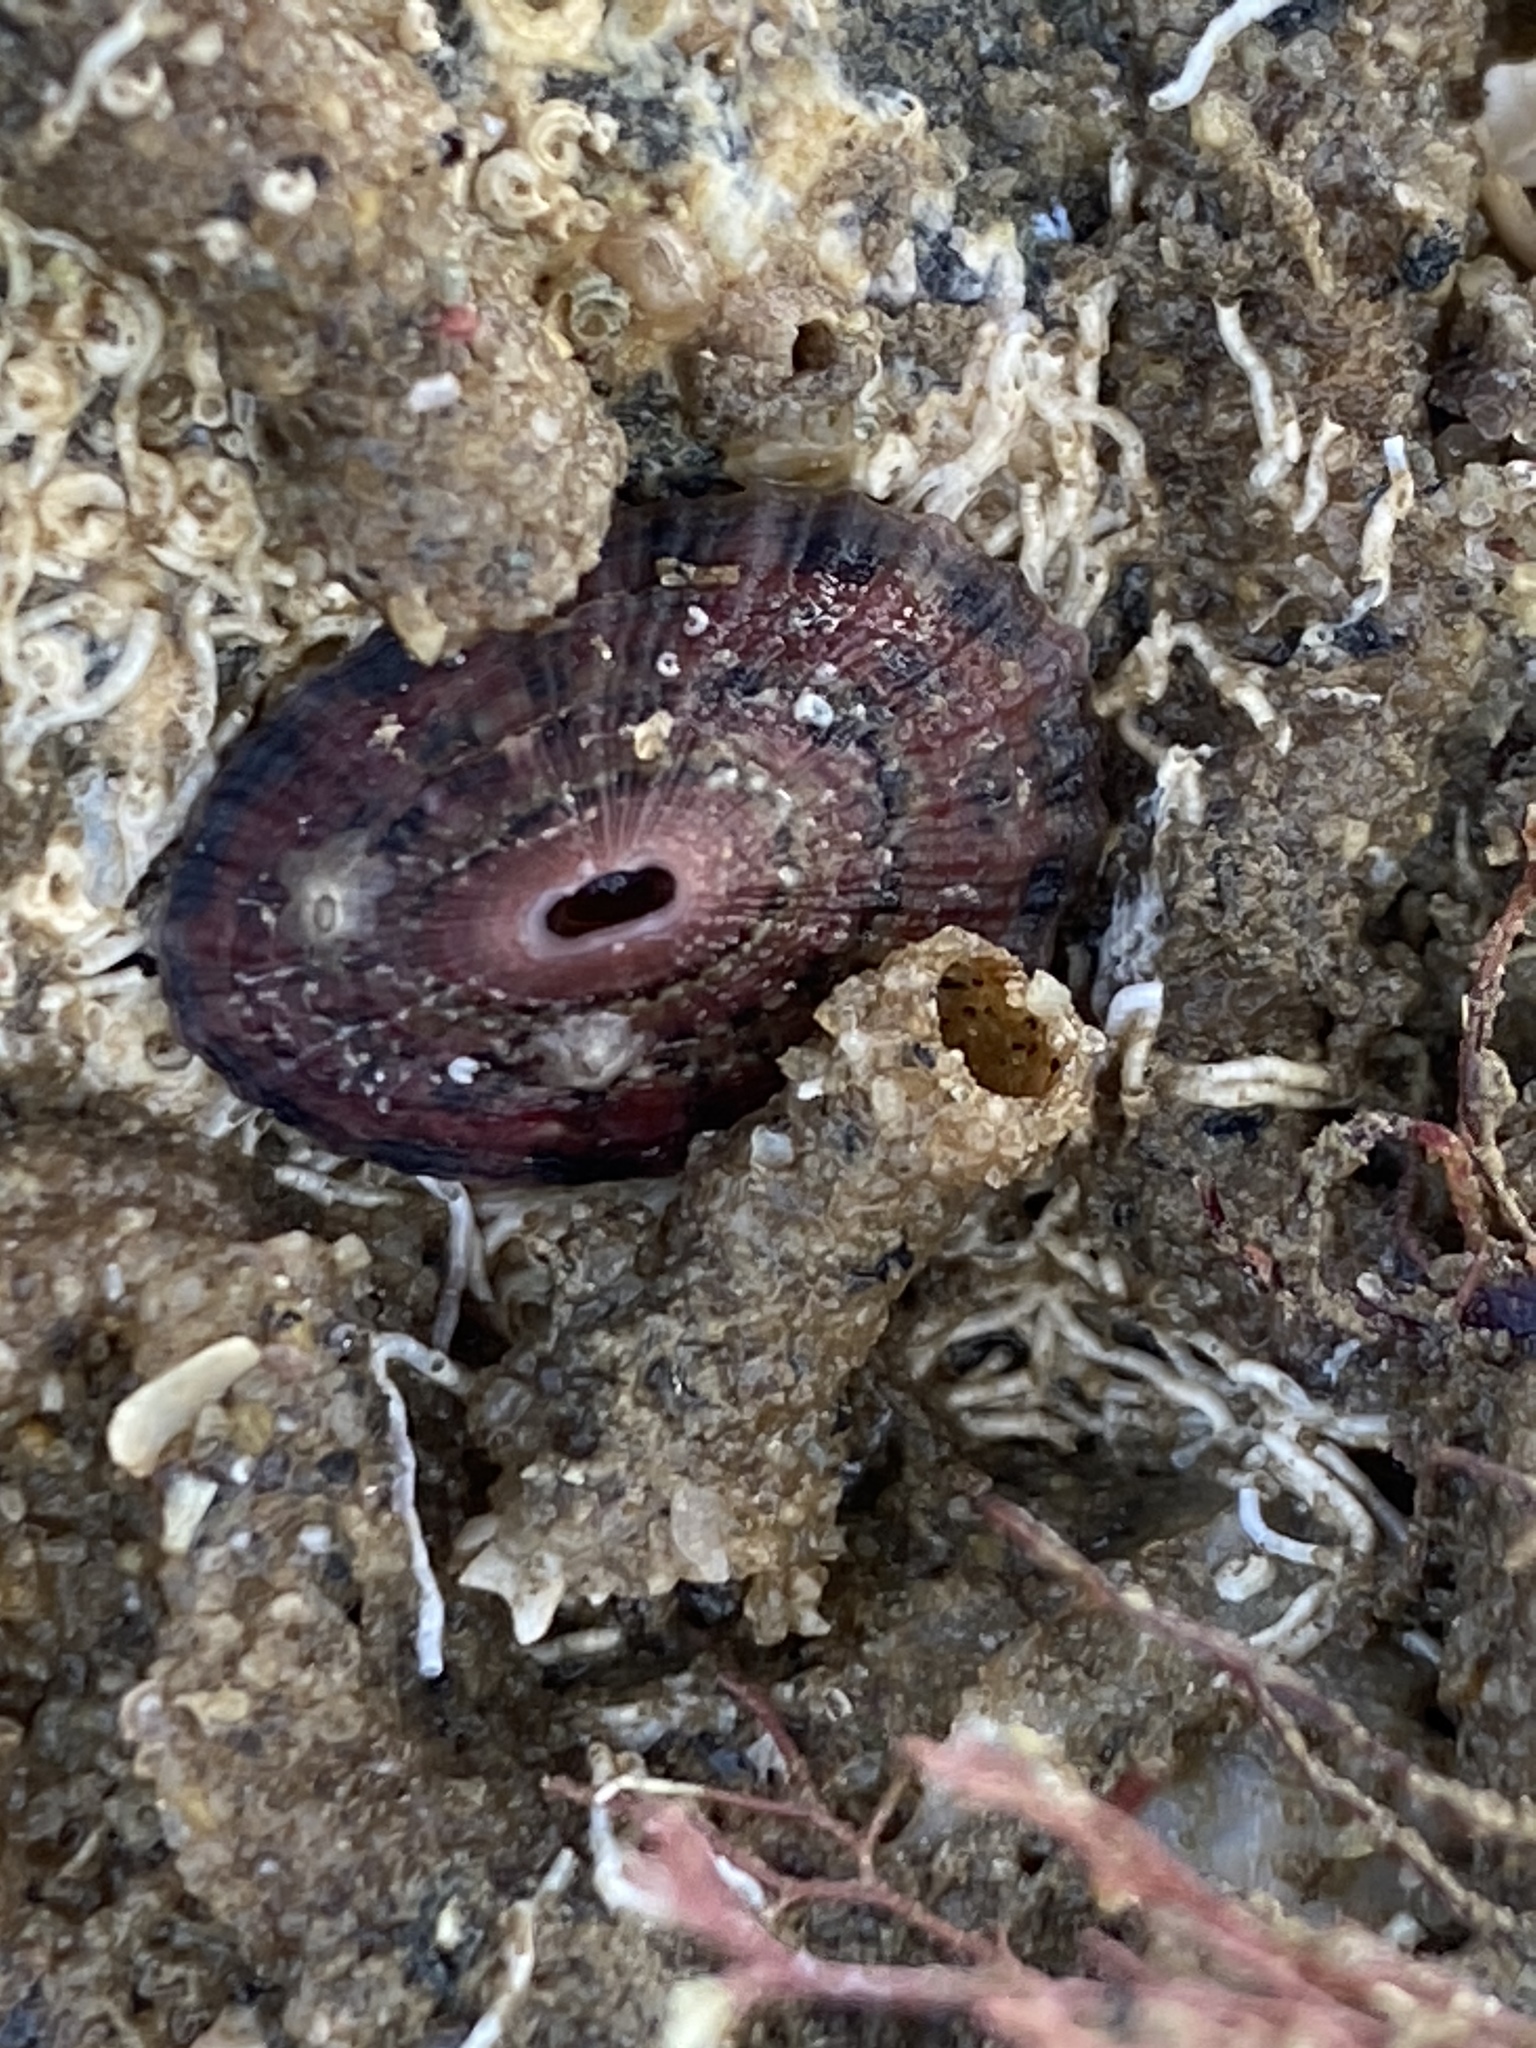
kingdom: Animalia
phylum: Mollusca
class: Gastropoda
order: Lepetellida
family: Fissurellidae
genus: Fissurella
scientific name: Fissurella volcano
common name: Volcano keyhole limpet
